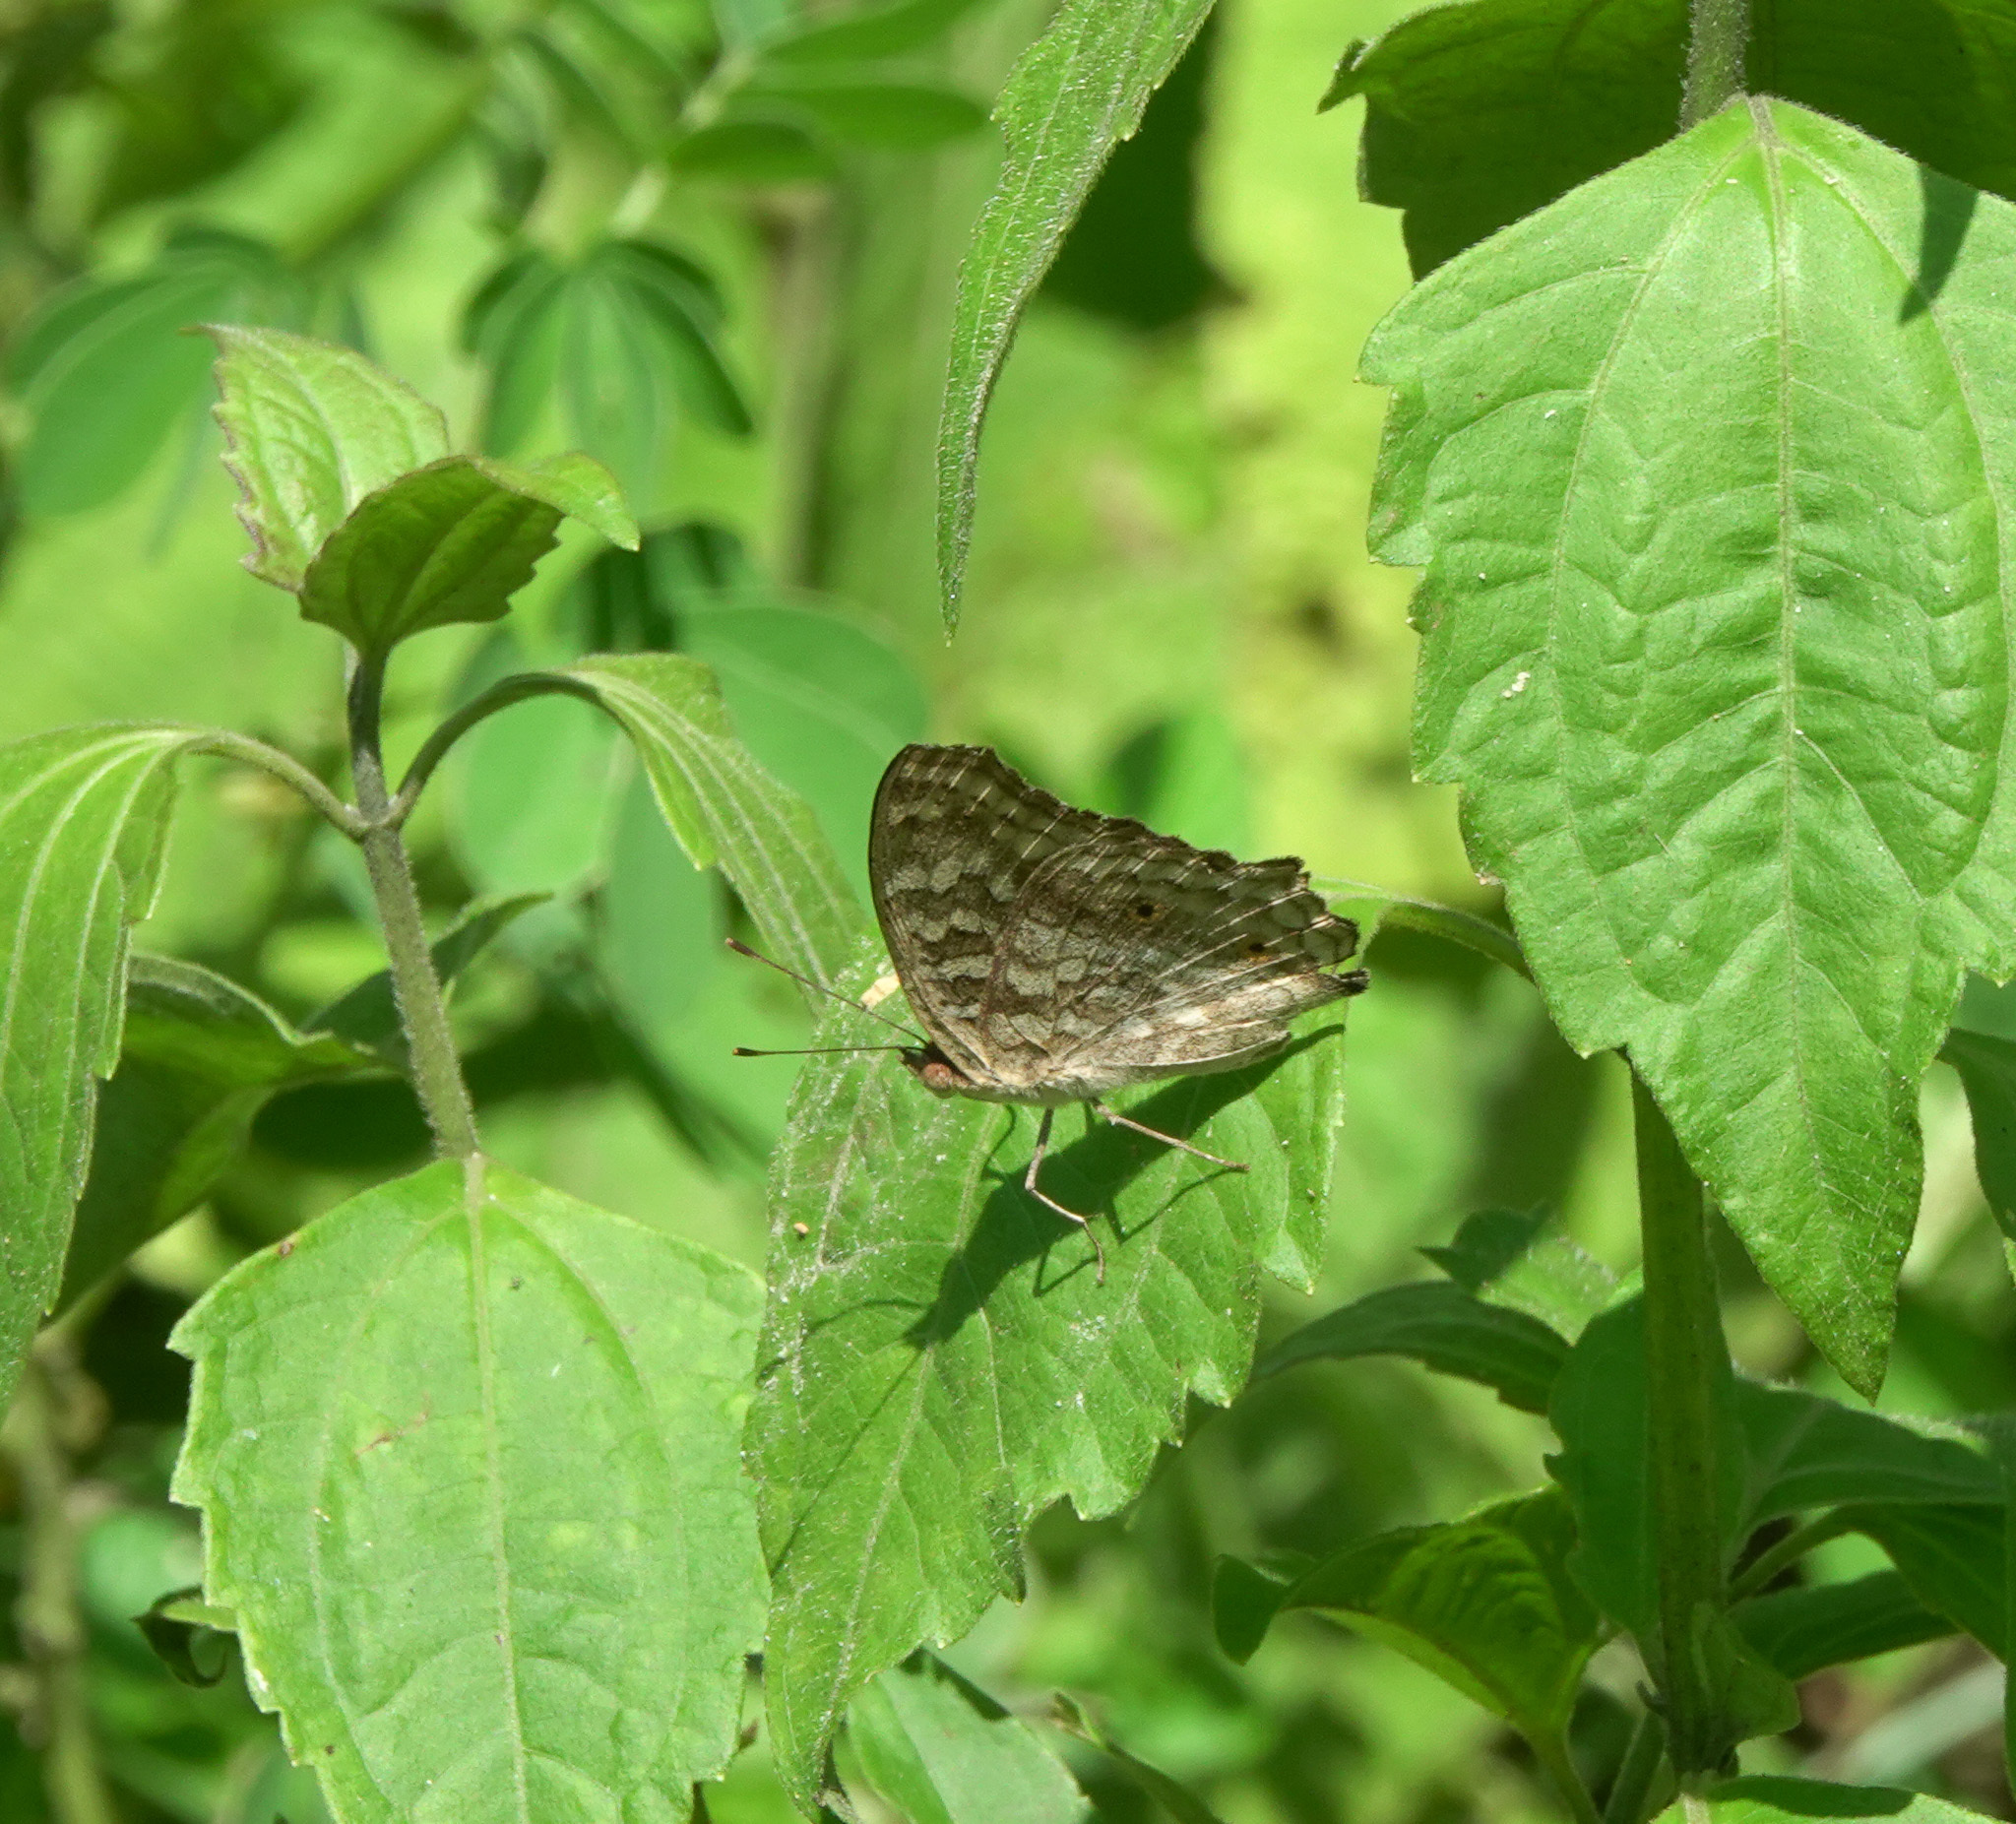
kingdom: Animalia
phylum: Arthropoda
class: Insecta
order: Lepidoptera
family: Nymphalidae
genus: Junonia
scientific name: Junonia lemonias
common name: Lemon pansy
